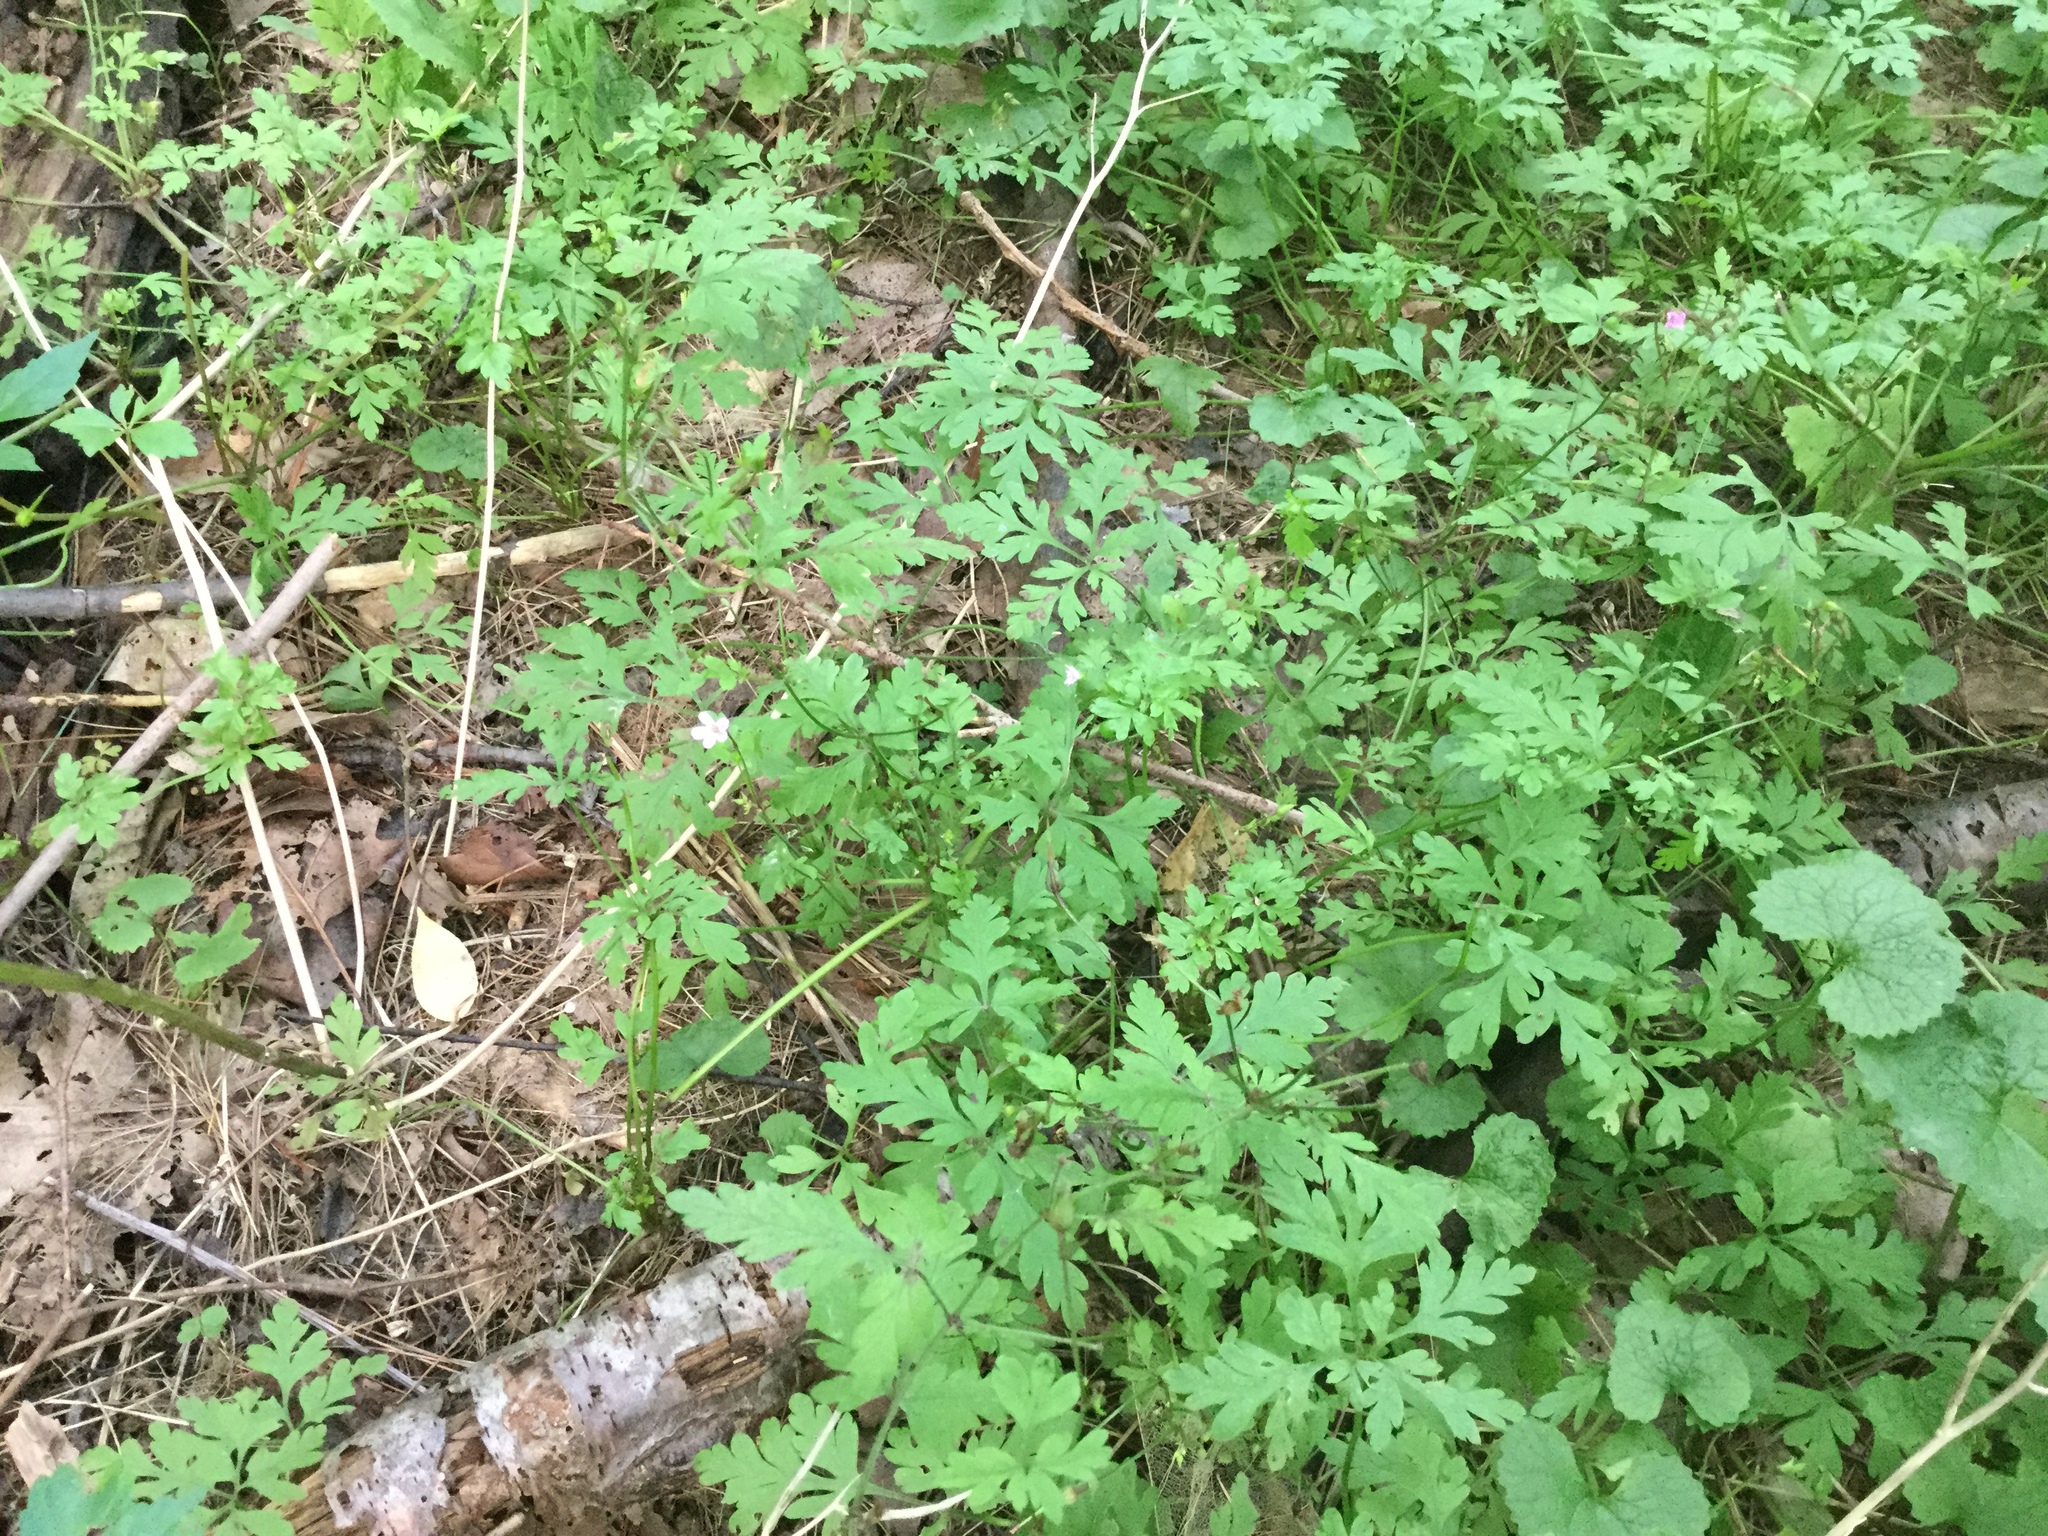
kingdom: Plantae
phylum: Tracheophyta
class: Magnoliopsida
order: Geraniales
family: Geraniaceae
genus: Geranium
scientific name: Geranium robertianum
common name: Herb-robert
